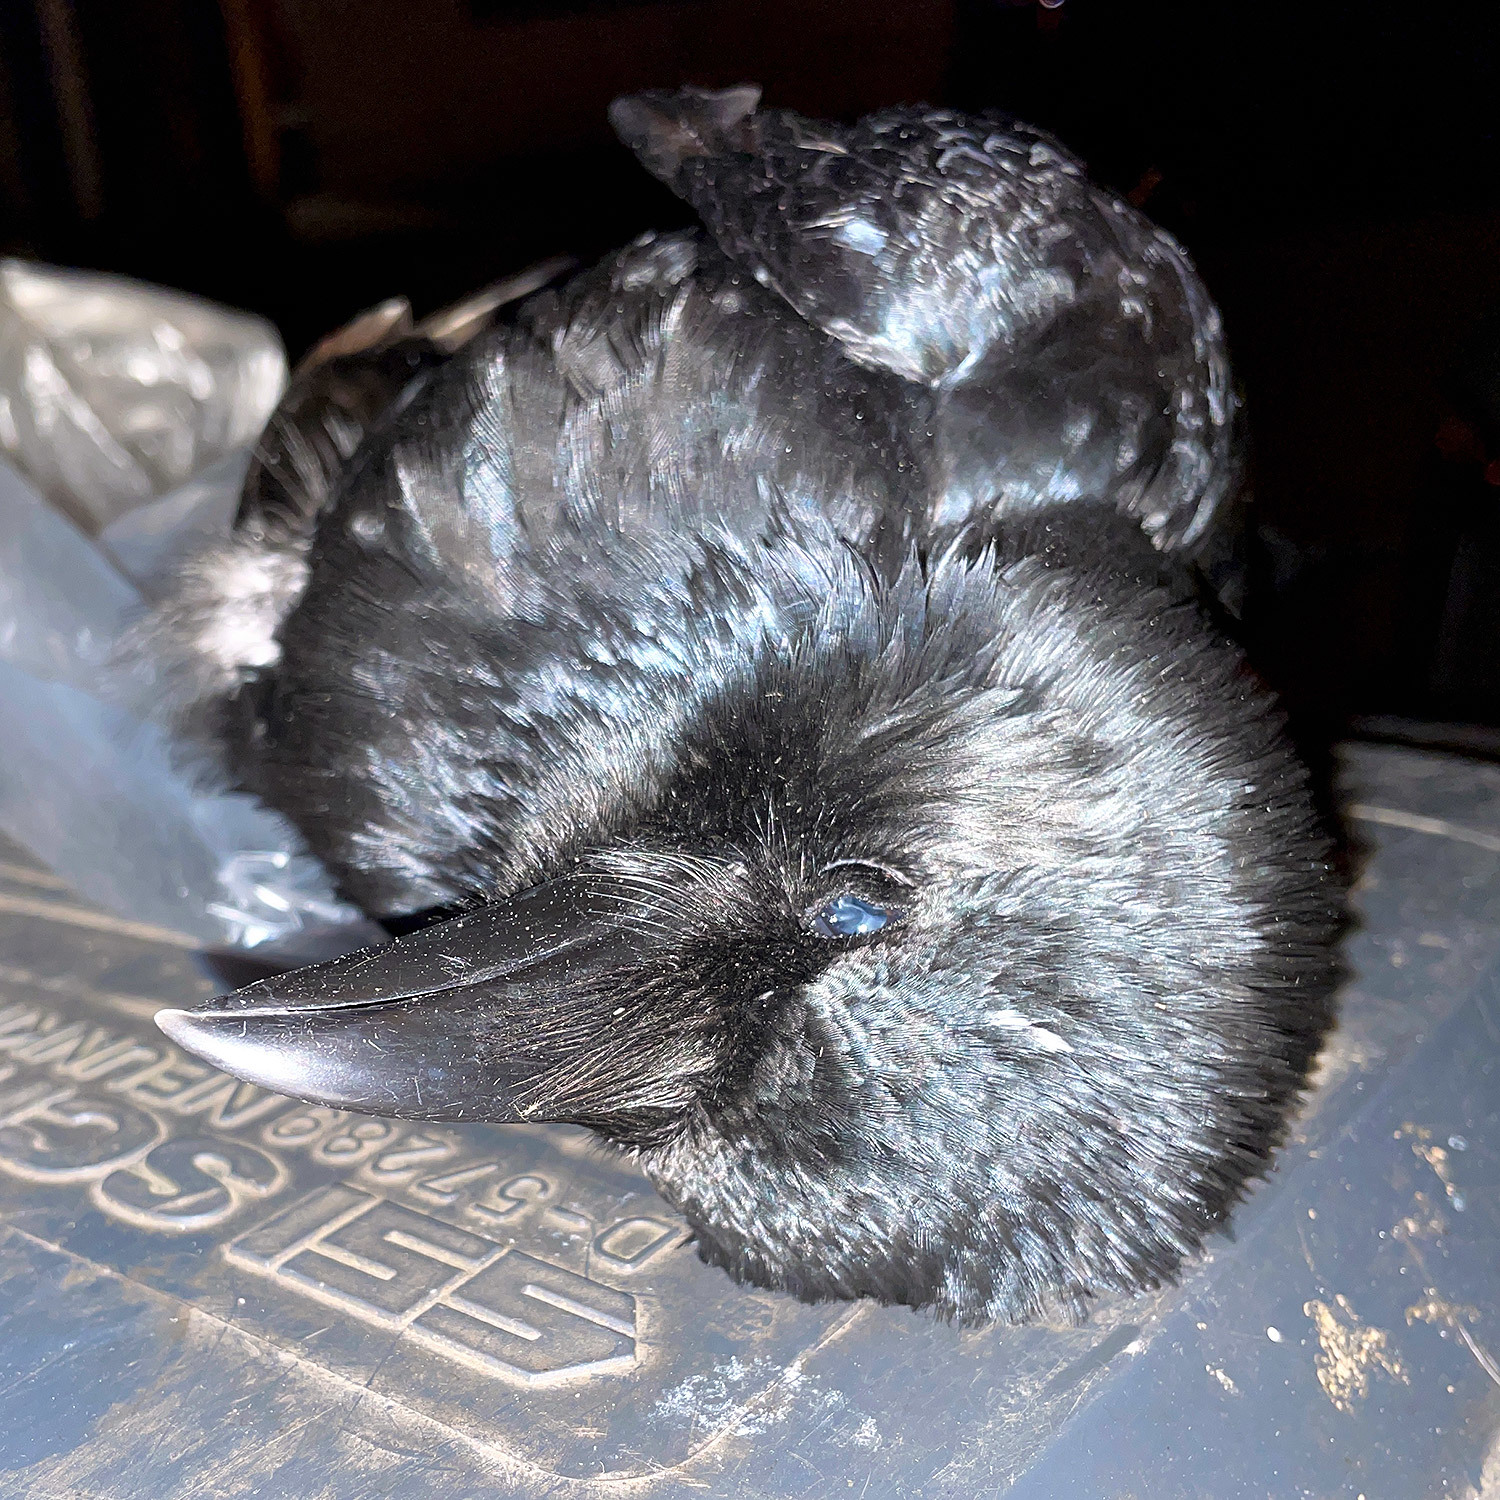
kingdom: Animalia
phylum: Chordata
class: Aves
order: Passeriformes
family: Corvidae
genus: Corvus
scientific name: Corvus corone
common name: Carrion crow
